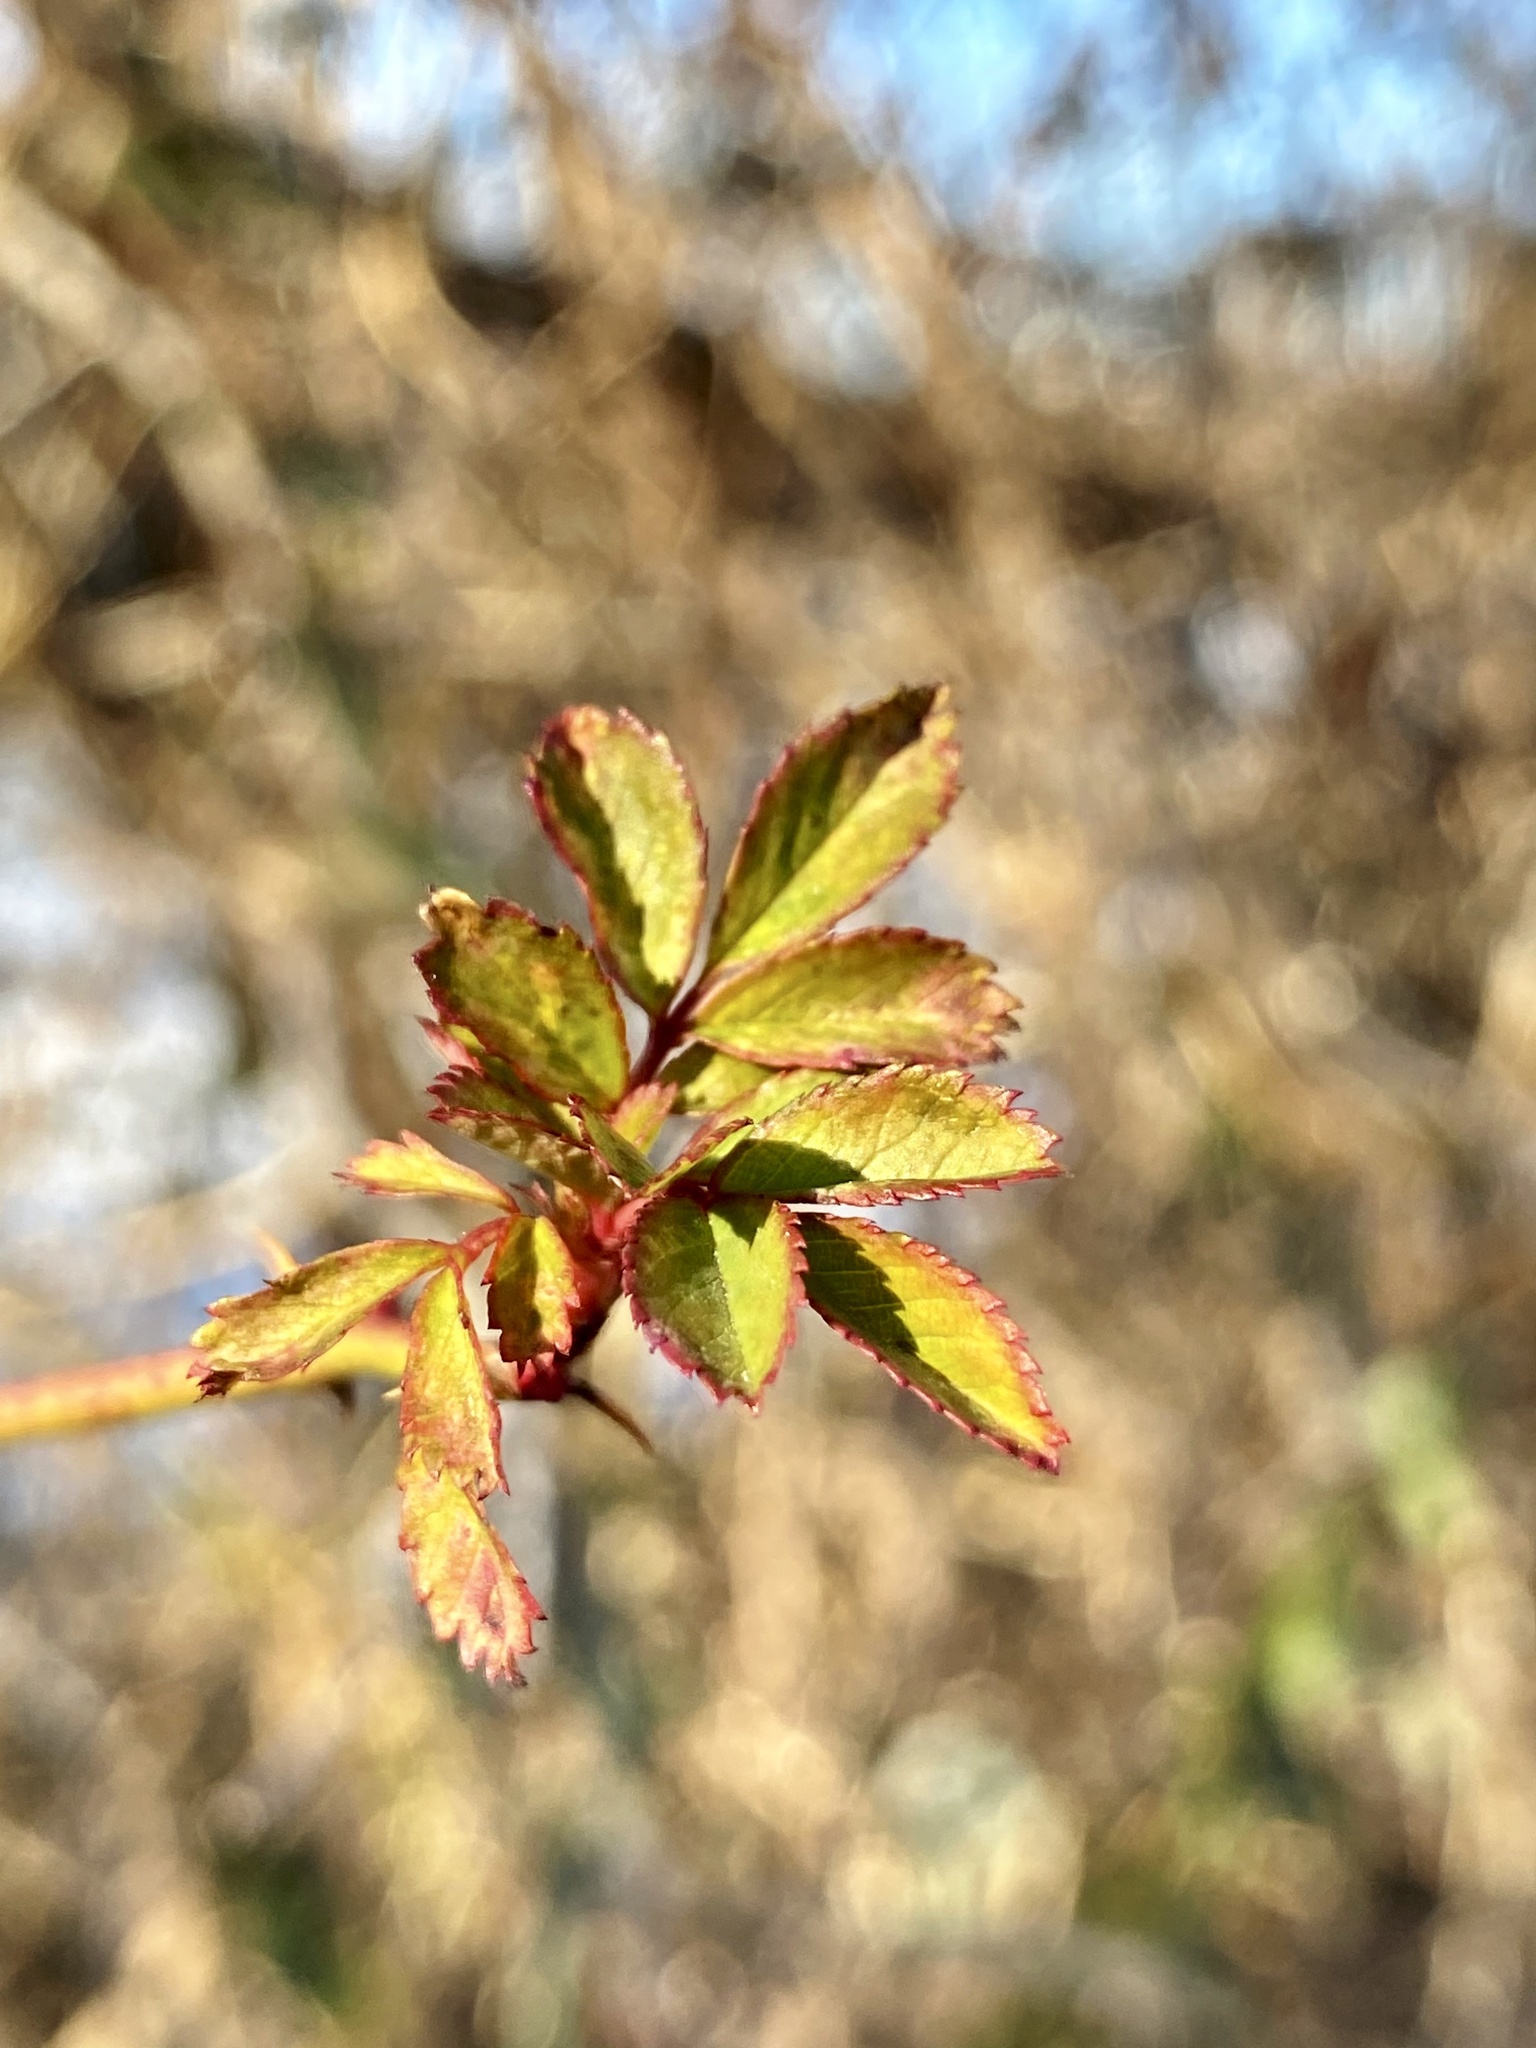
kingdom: Plantae
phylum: Tracheophyta
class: Magnoliopsida
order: Rosales
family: Rosaceae
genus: Rosa
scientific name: Rosa multiflora
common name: Multiflora rose
